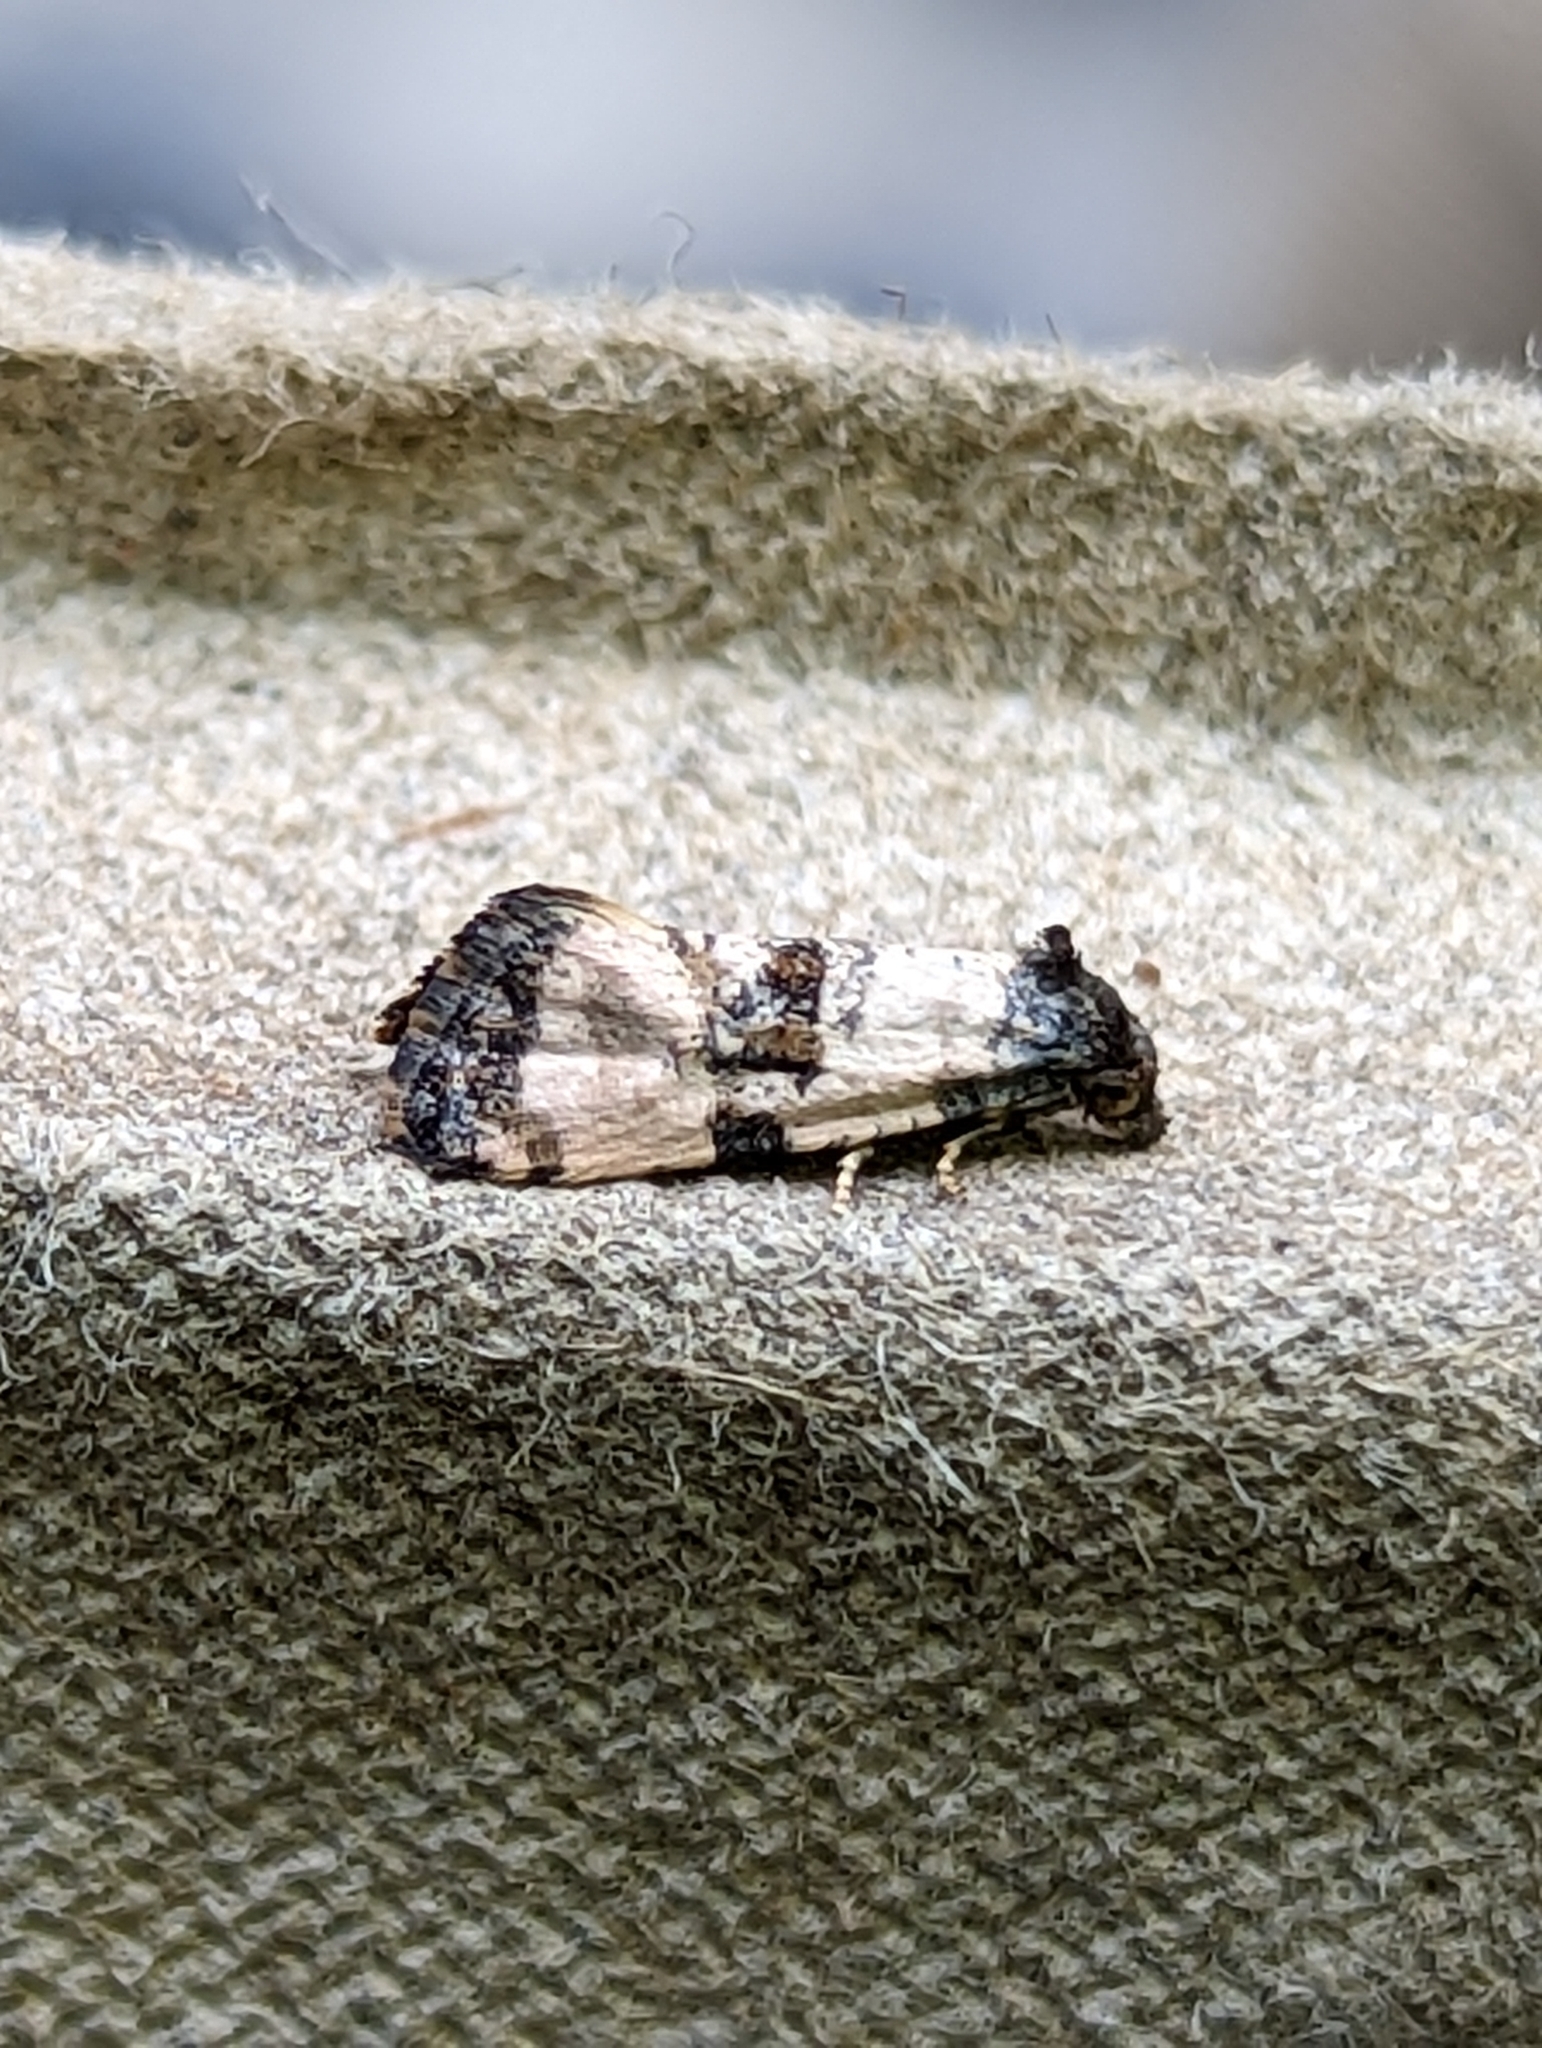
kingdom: Animalia
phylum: Arthropoda
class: Insecta
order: Lepidoptera
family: Tortricidae
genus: Cochylis
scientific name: Cochylis atricapitana
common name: Tortricid moth
